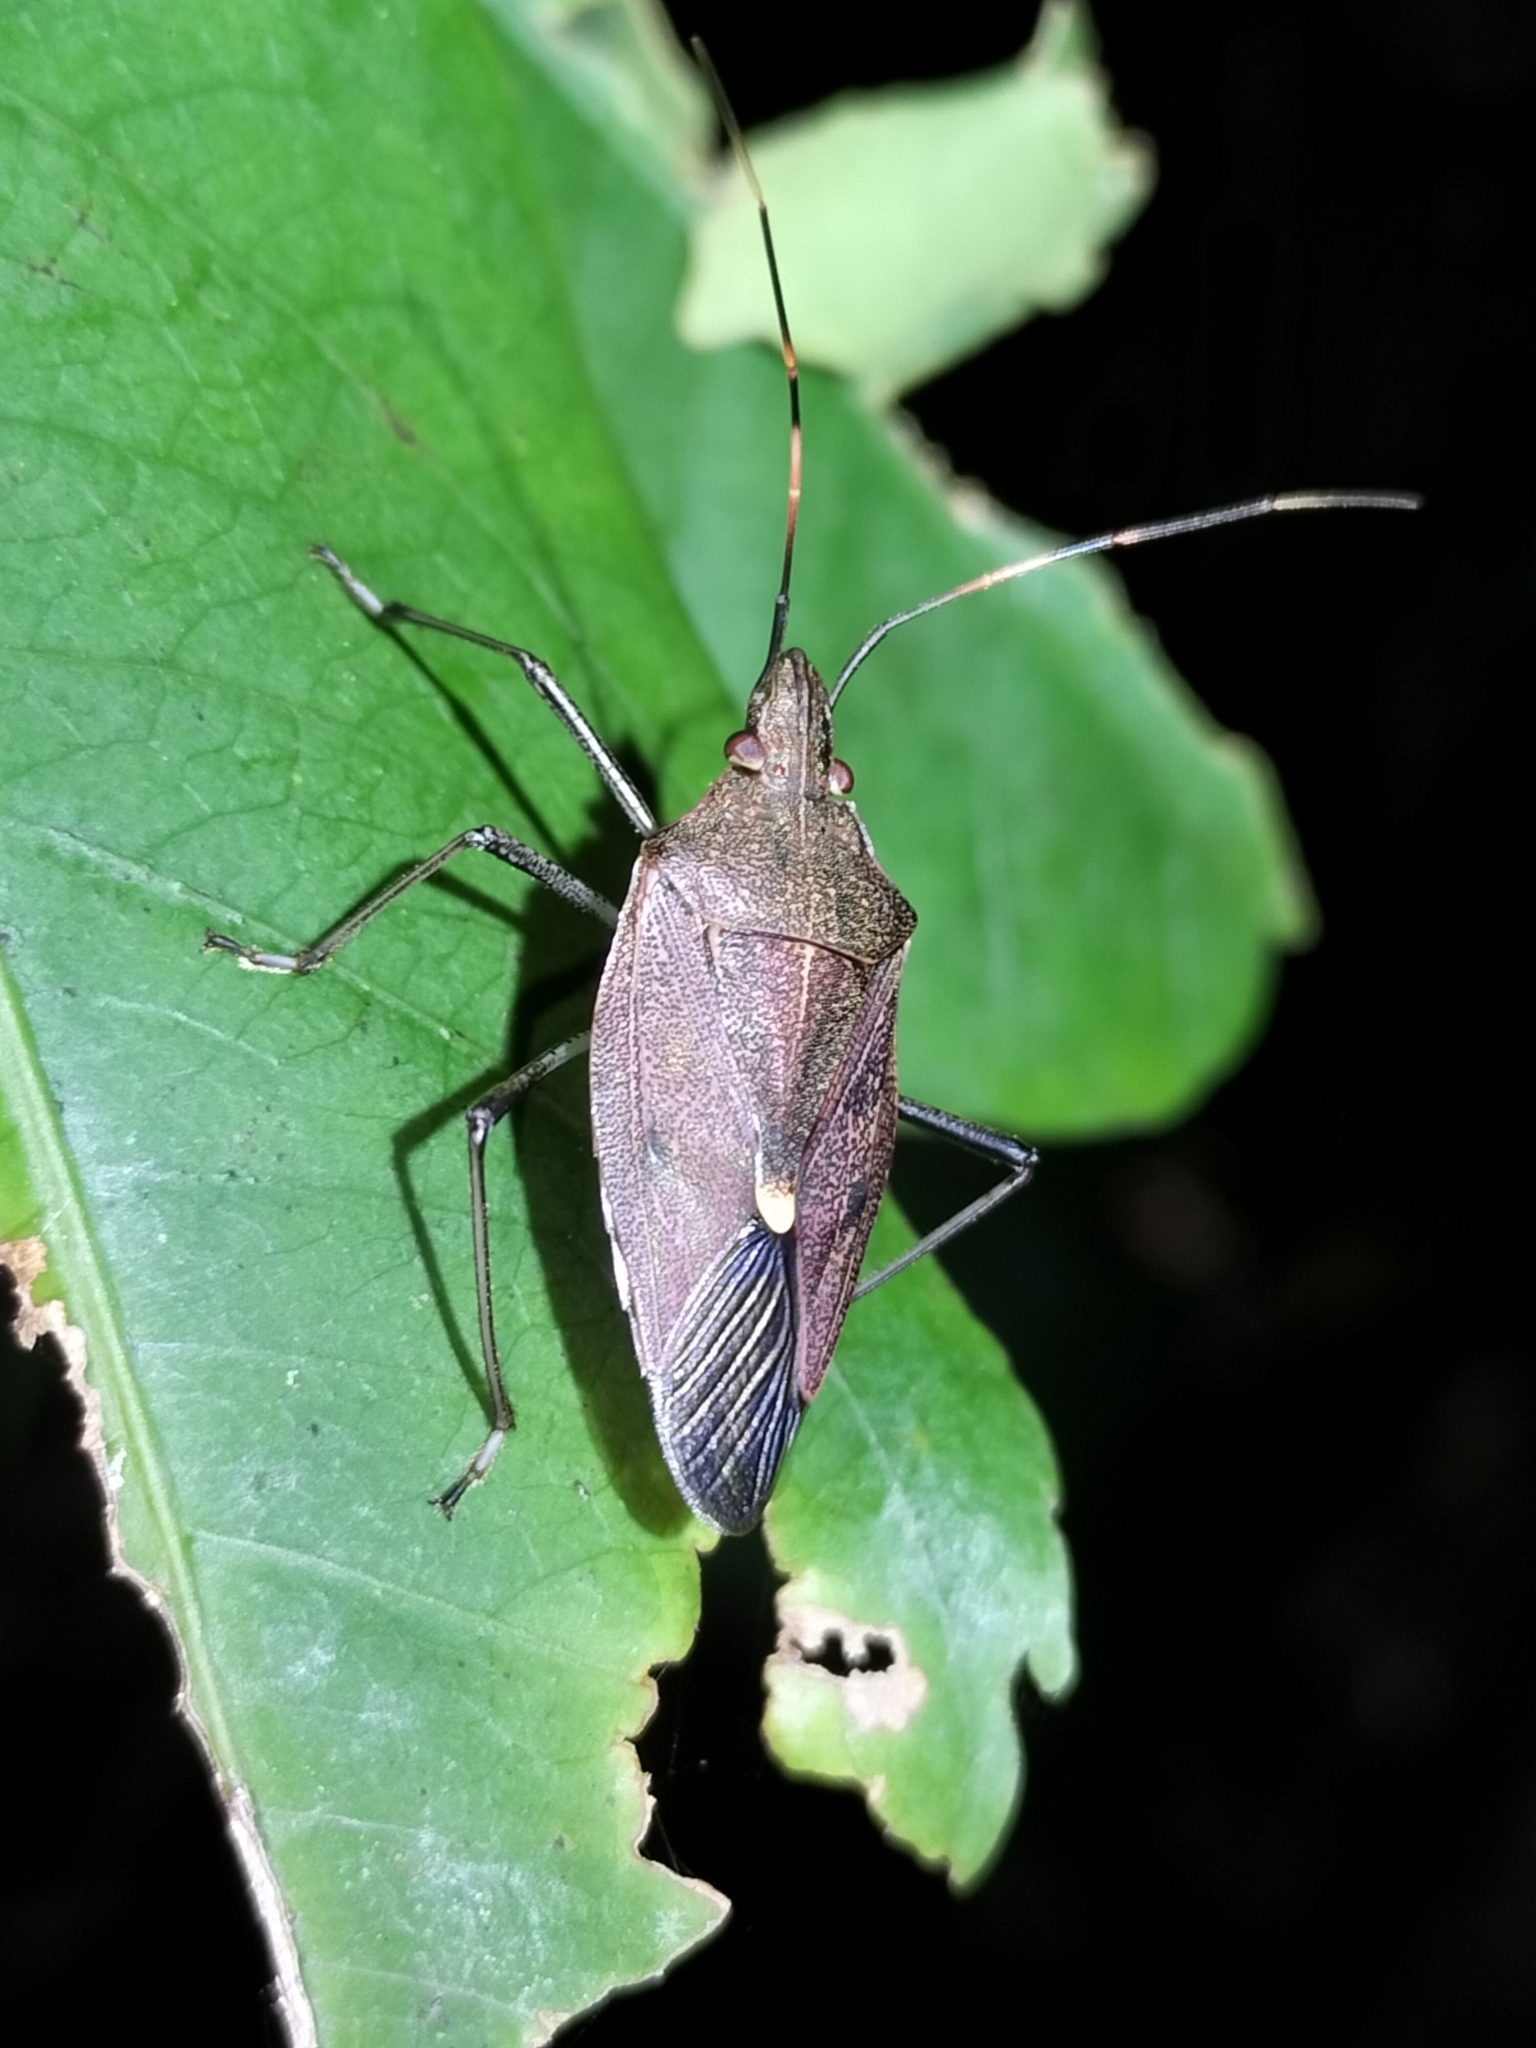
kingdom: Animalia
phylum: Arthropoda
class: Insecta
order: Hemiptera
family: Pentatomidae
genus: Poecilometis
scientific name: Poecilometis
